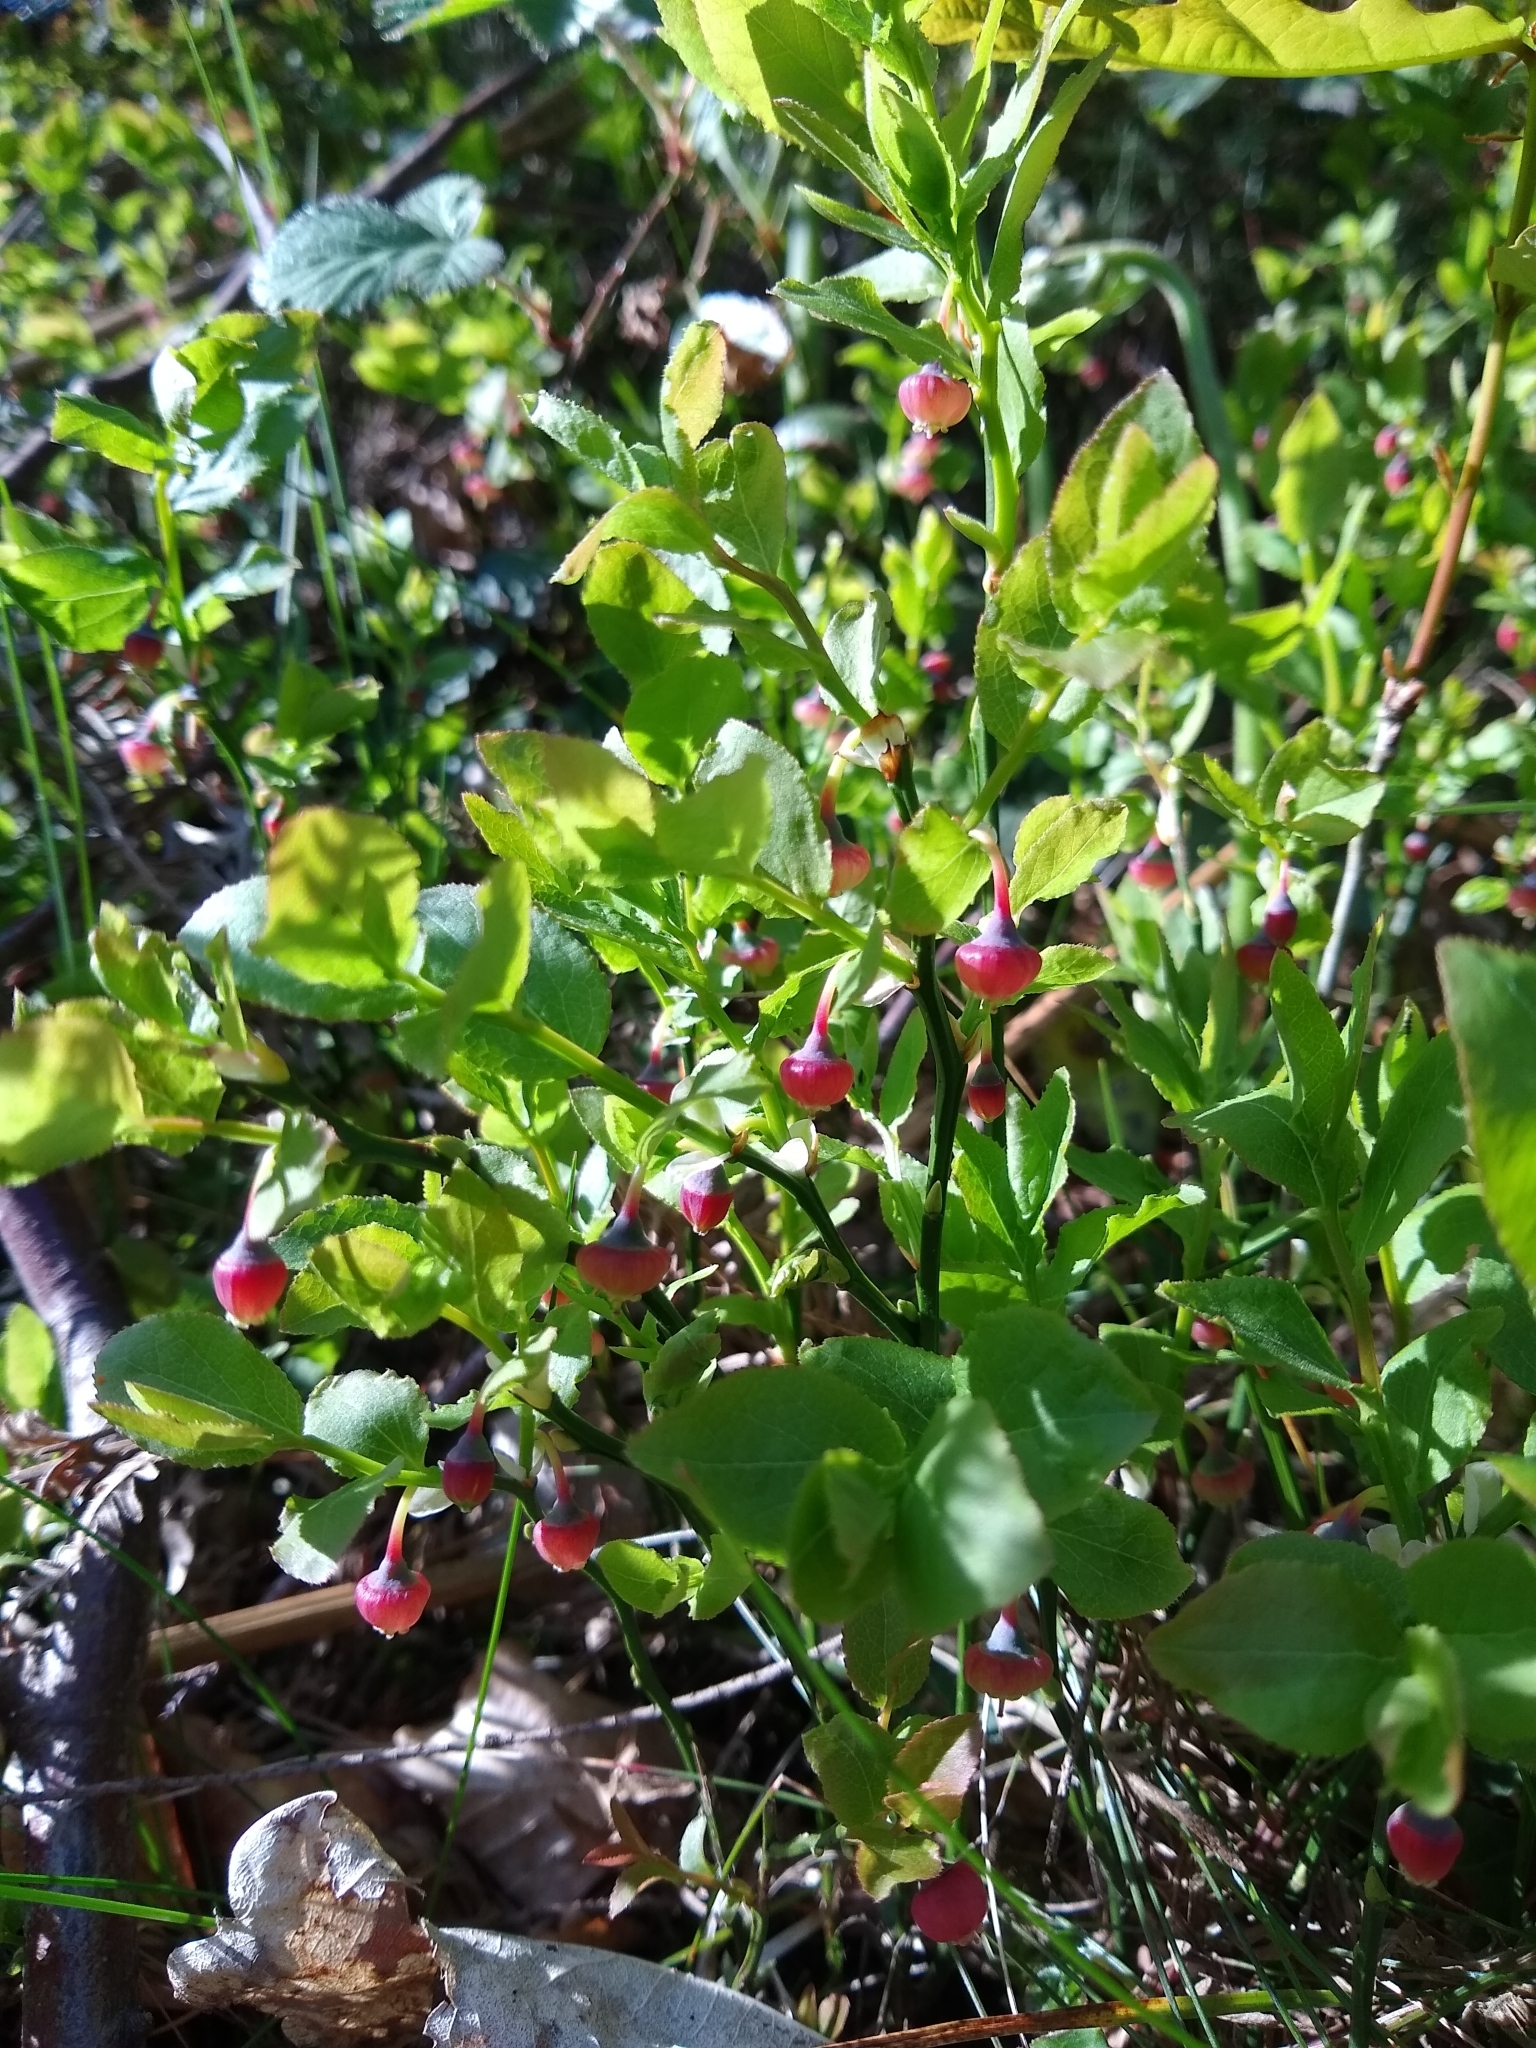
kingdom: Plantae
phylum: Tracheophyta
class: Magnoliopsida
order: Ericales
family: Ericaceae
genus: Vaccinium
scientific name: Vaccinium myrtillus
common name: Bilberry
